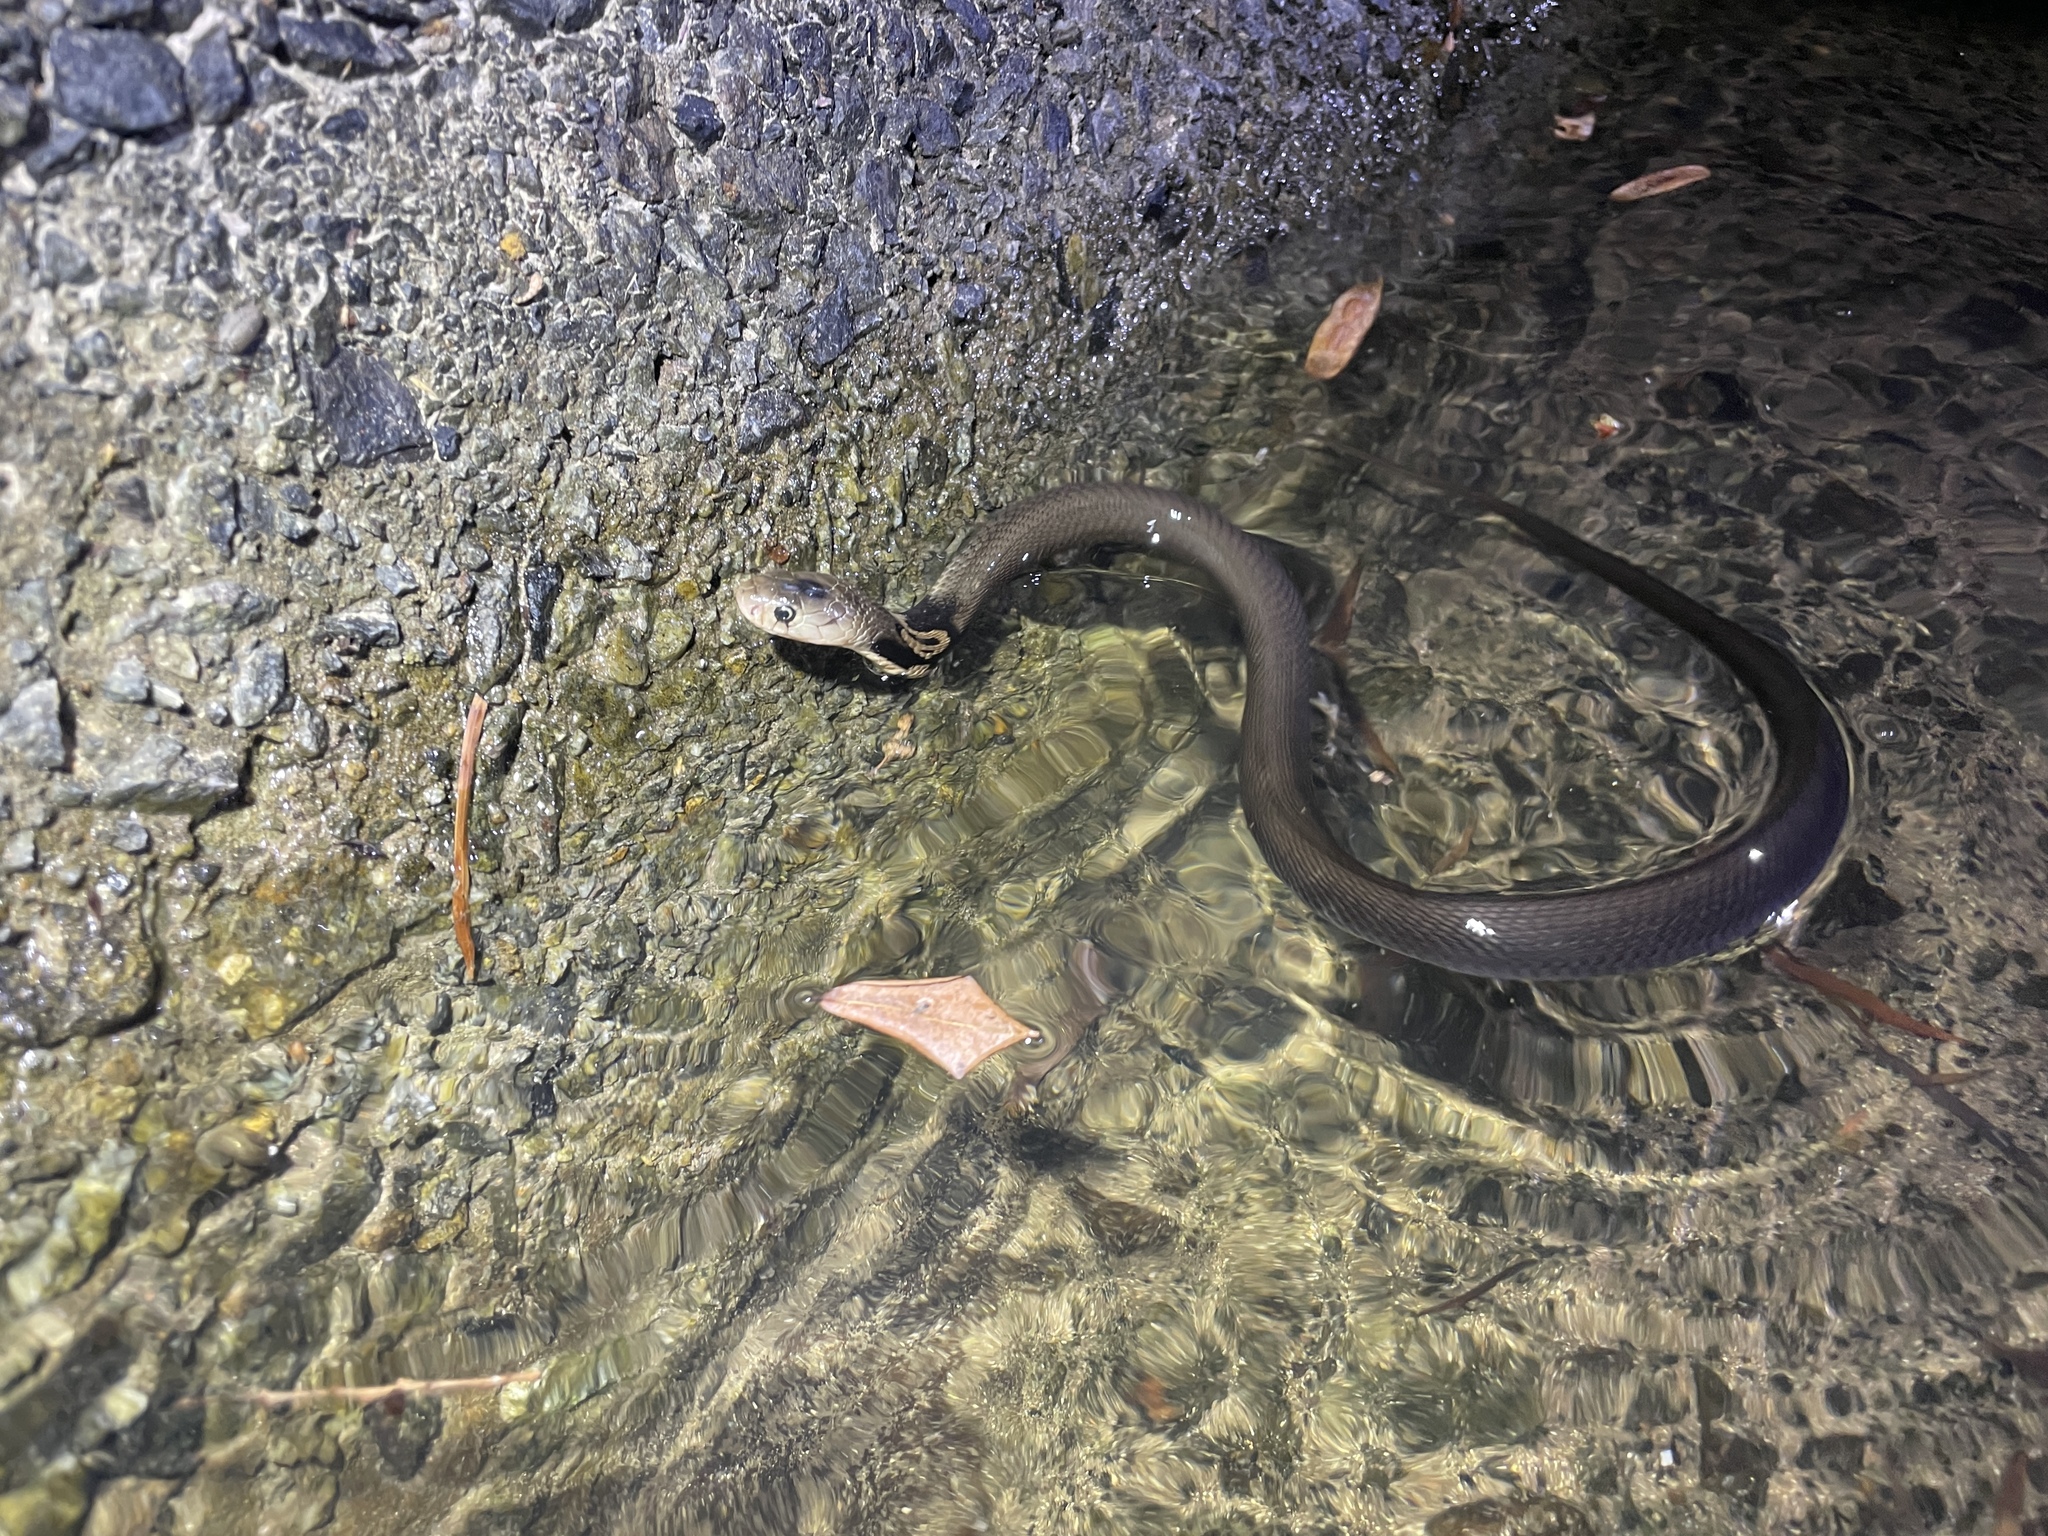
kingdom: Animalia
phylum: Chordata
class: Squamata
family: Elapidae
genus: Naja
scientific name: Naja atra
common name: Chinese cobra
